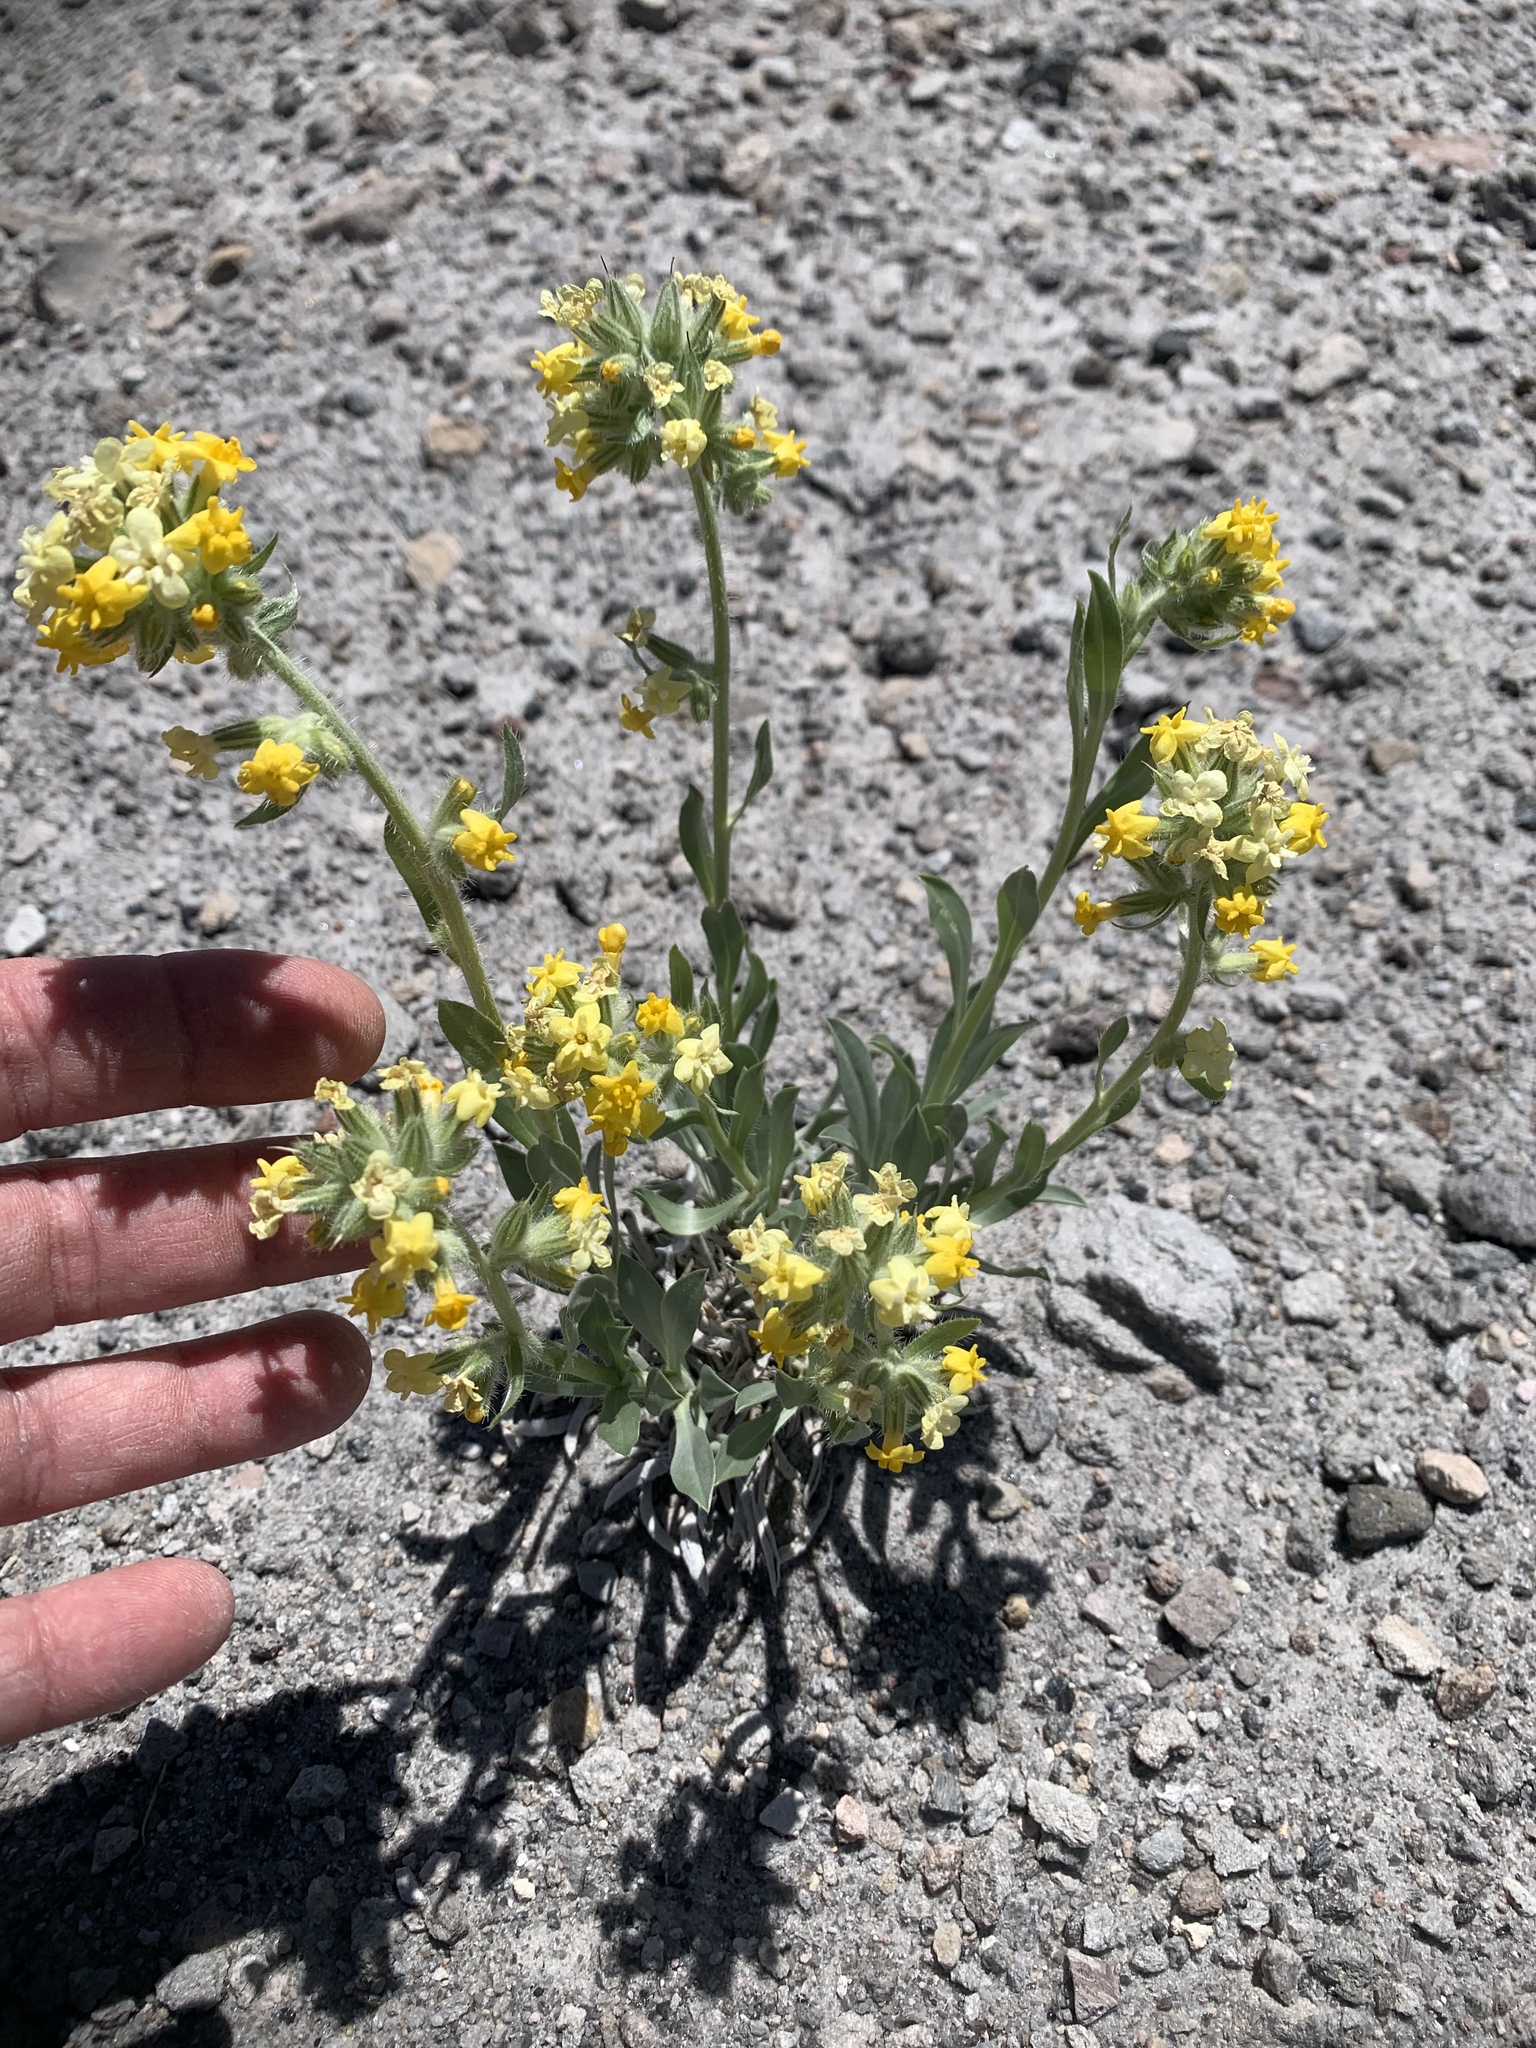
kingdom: Plantae
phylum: Tracheophyta
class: Magnoliopsida
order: Boraginales
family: Boraginaceae
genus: Oreocarya
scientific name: Oreocarya confertiflora
